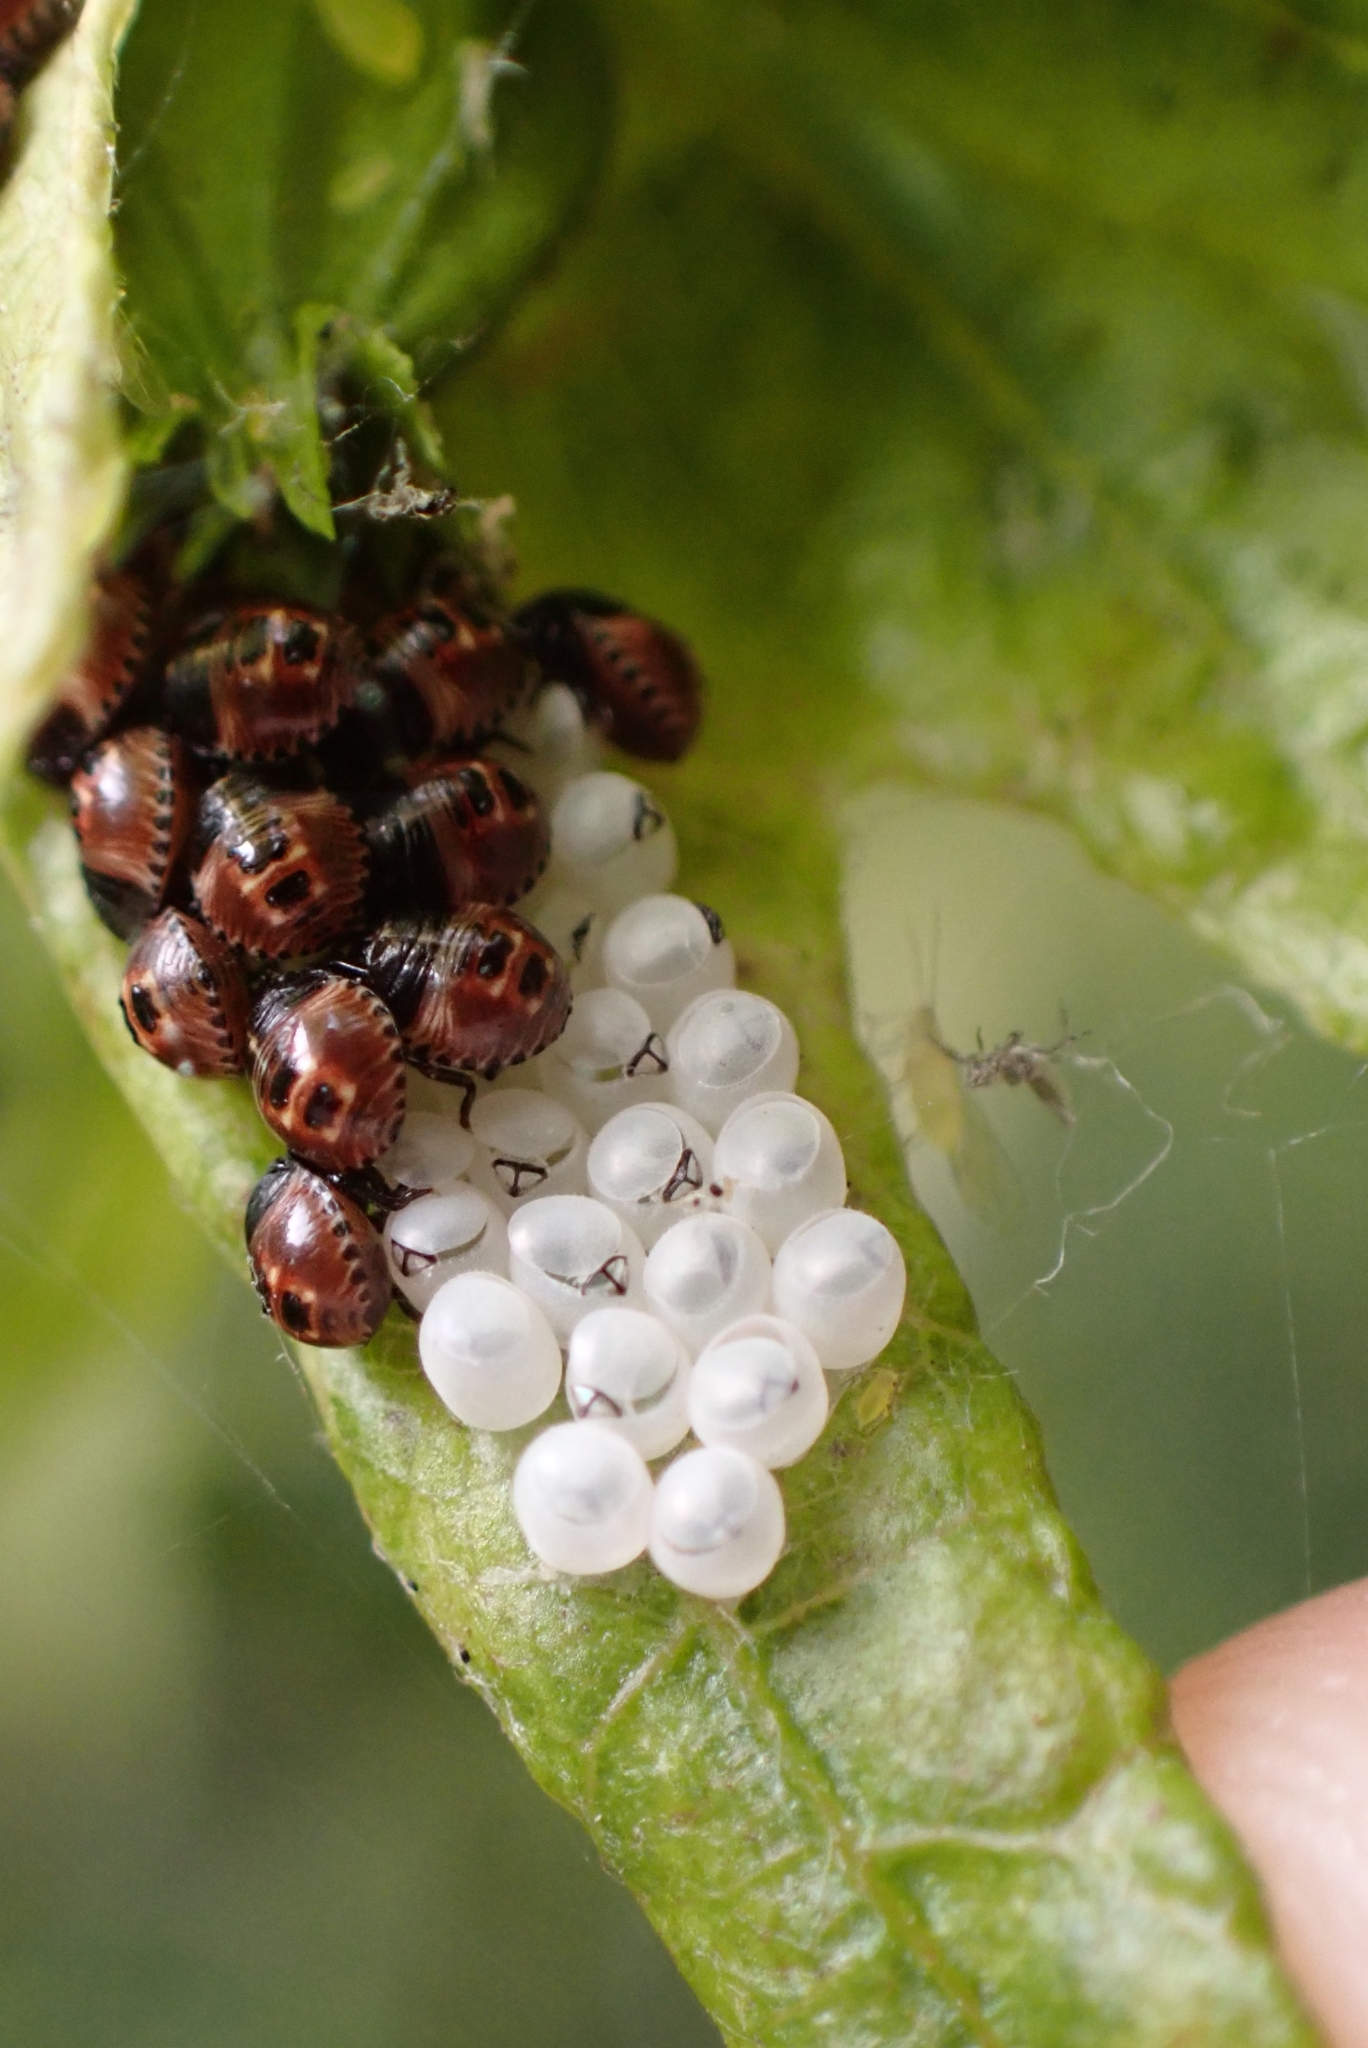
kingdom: Animalia
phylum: Arthropoda
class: Insecta
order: Hemiptera
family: Pentatomidae
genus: Palomena
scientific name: Palomena prasina
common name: Green shieldbug
